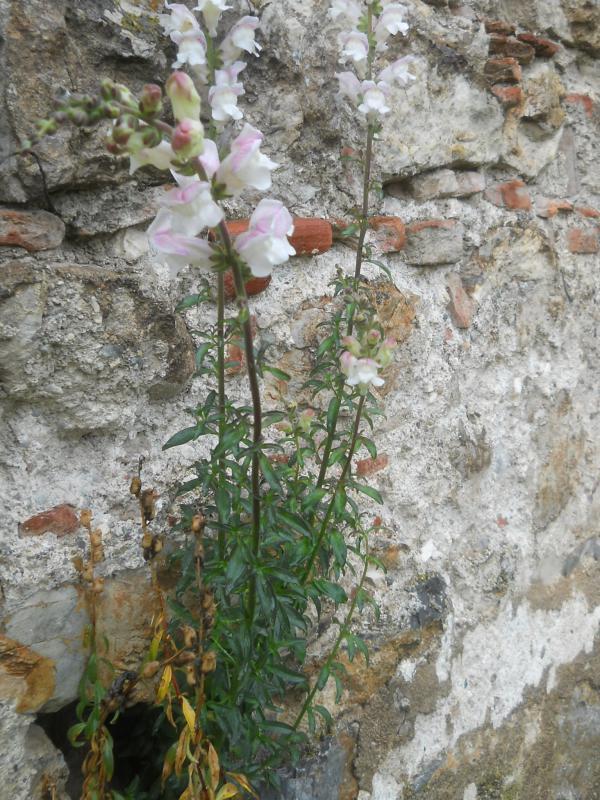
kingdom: Plantae
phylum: Tracheophyta
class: Magnoliopsida
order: Lamiales
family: Plantaginaceae
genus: Antirrhinum
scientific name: Antirrhinum majus
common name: Snapdragon
